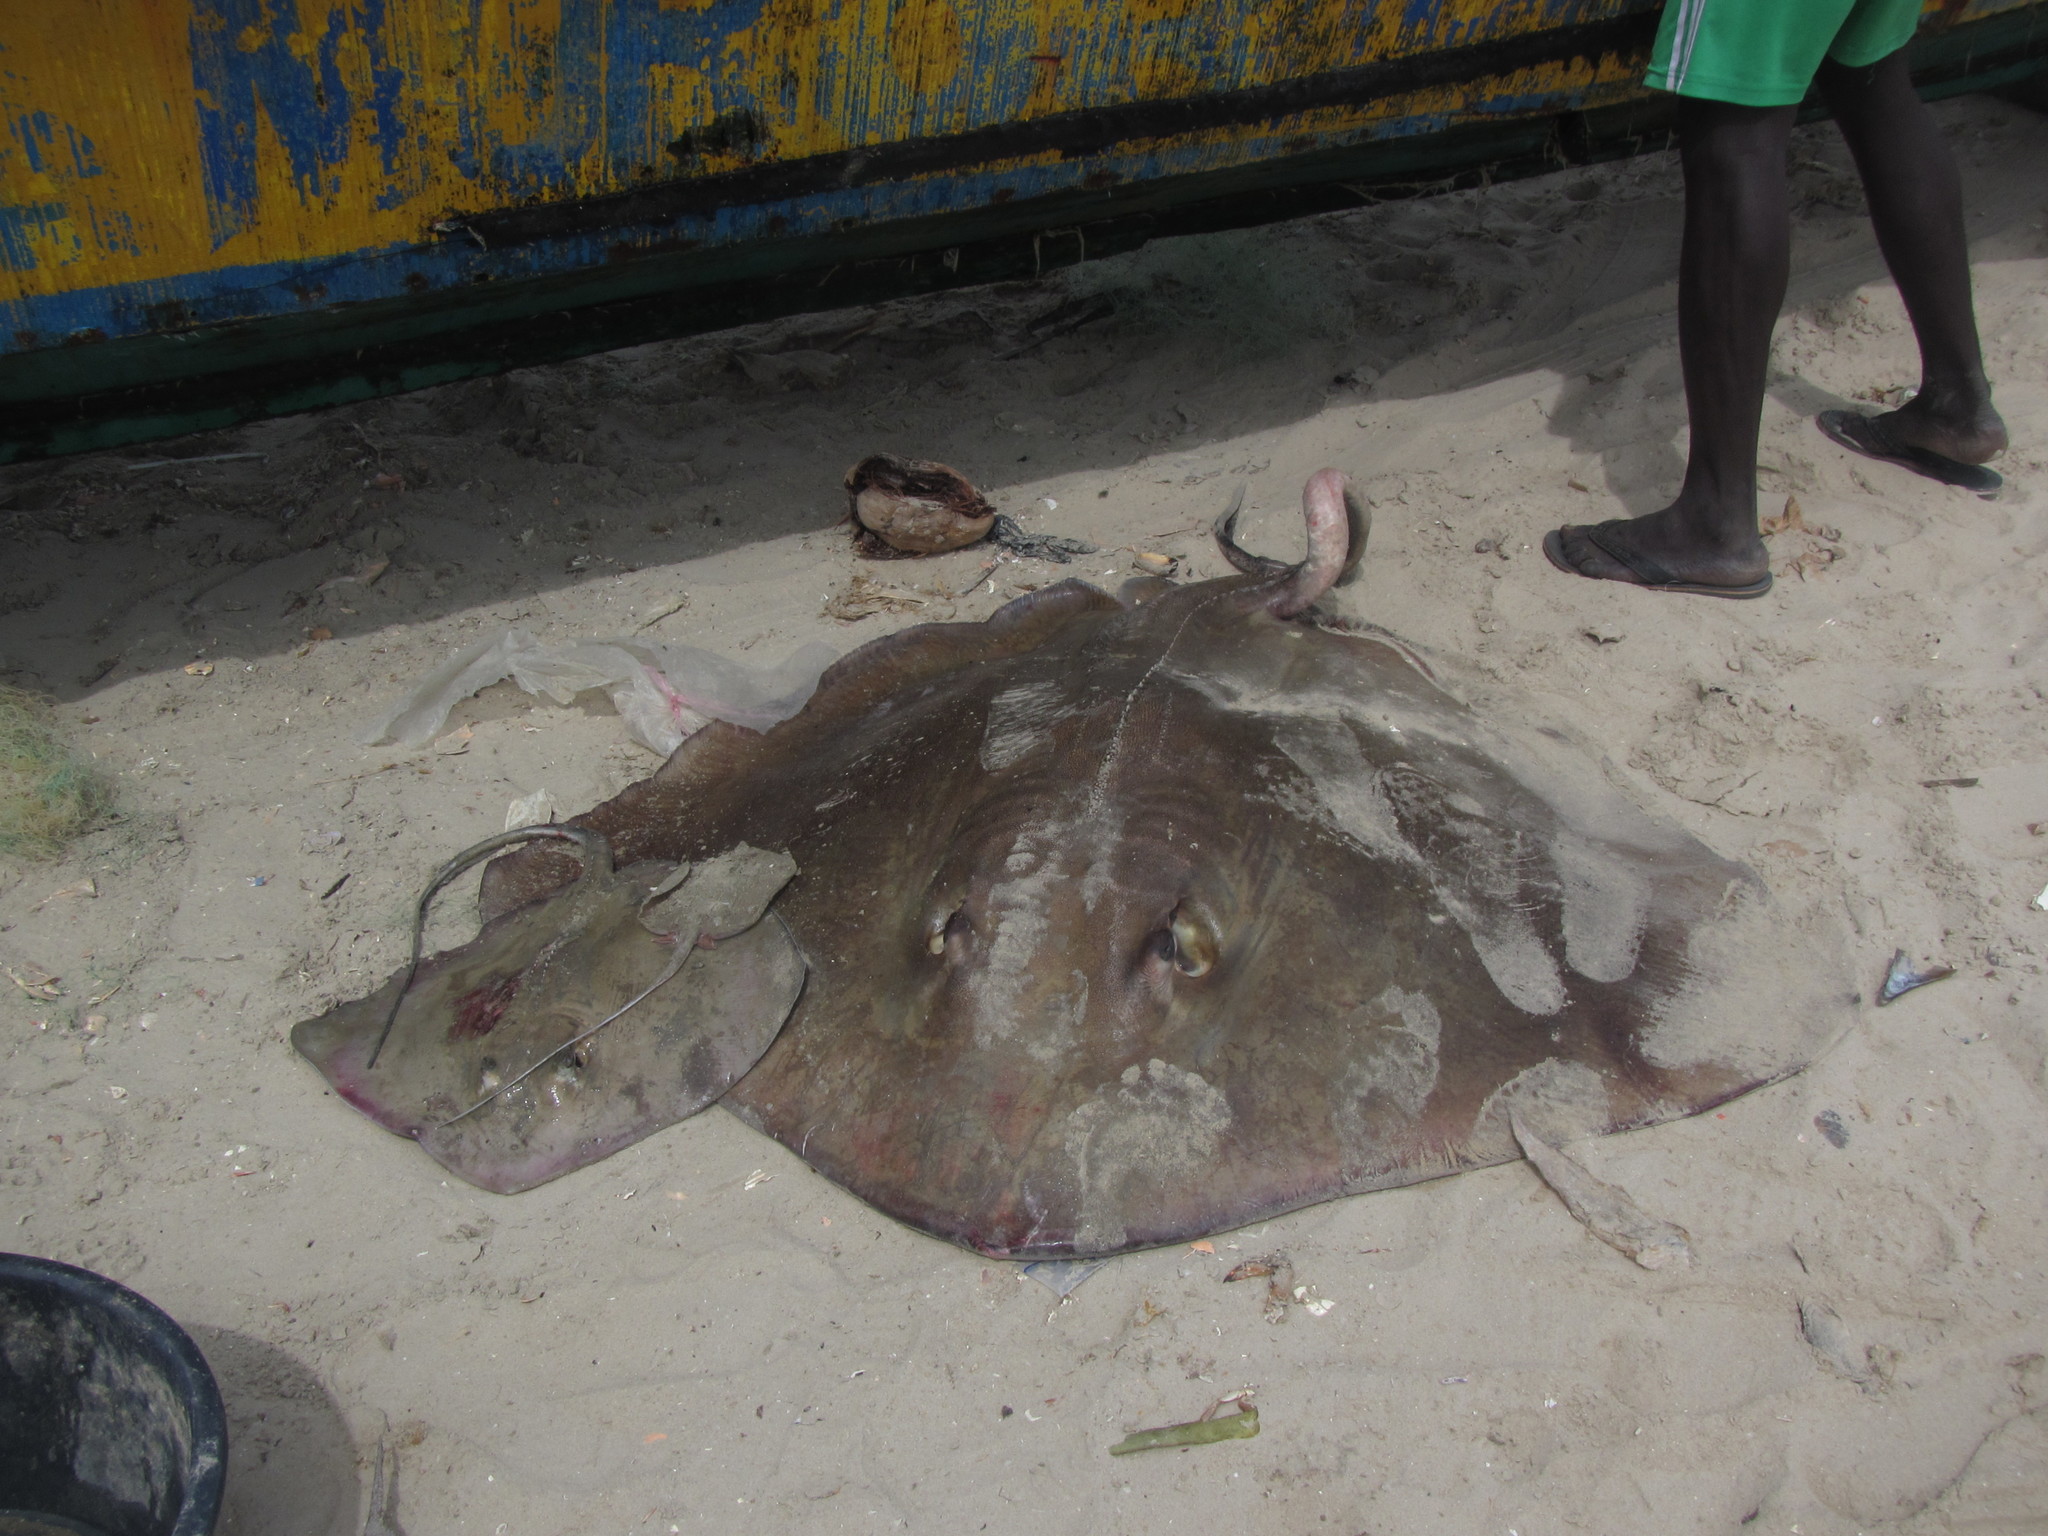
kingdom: Animalia
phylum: Chordata
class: Elasmobranchii
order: Myliobatiformes
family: Dasyatidae
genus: Hypanus
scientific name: Hypanus rudis
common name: Smalltooth stingray
